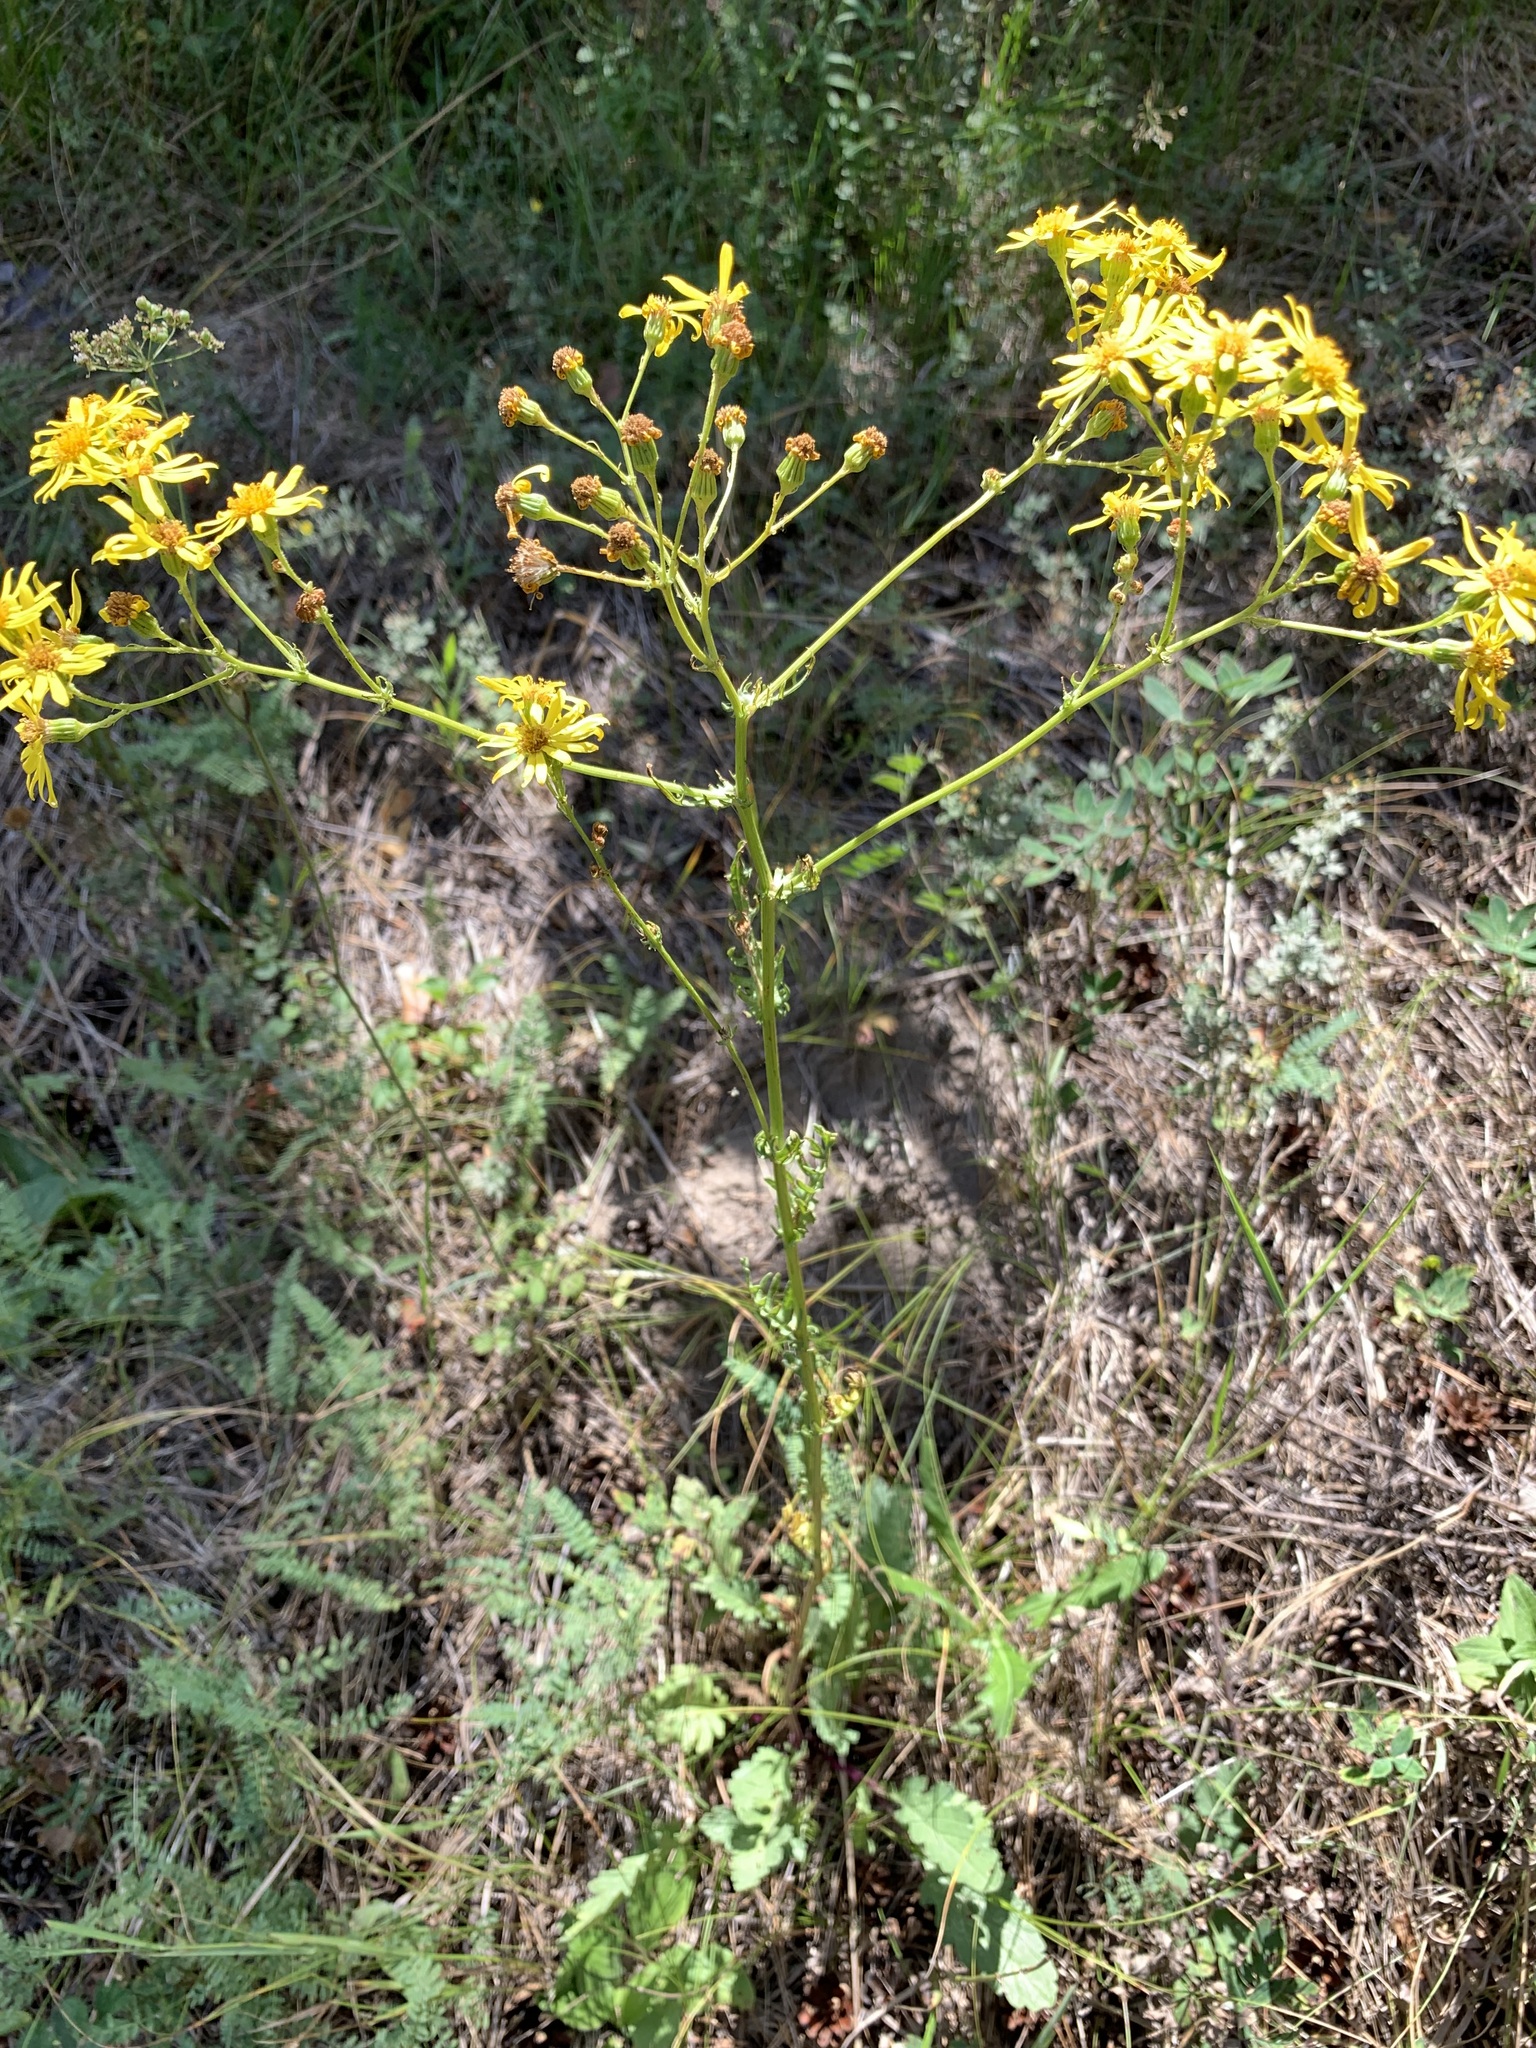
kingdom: Plantae
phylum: Tracheophyta
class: Magnoliopsida
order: Asterales
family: Asteraceae
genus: Jacobaea
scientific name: Jacobaea vulgaris
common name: Stinking willie
